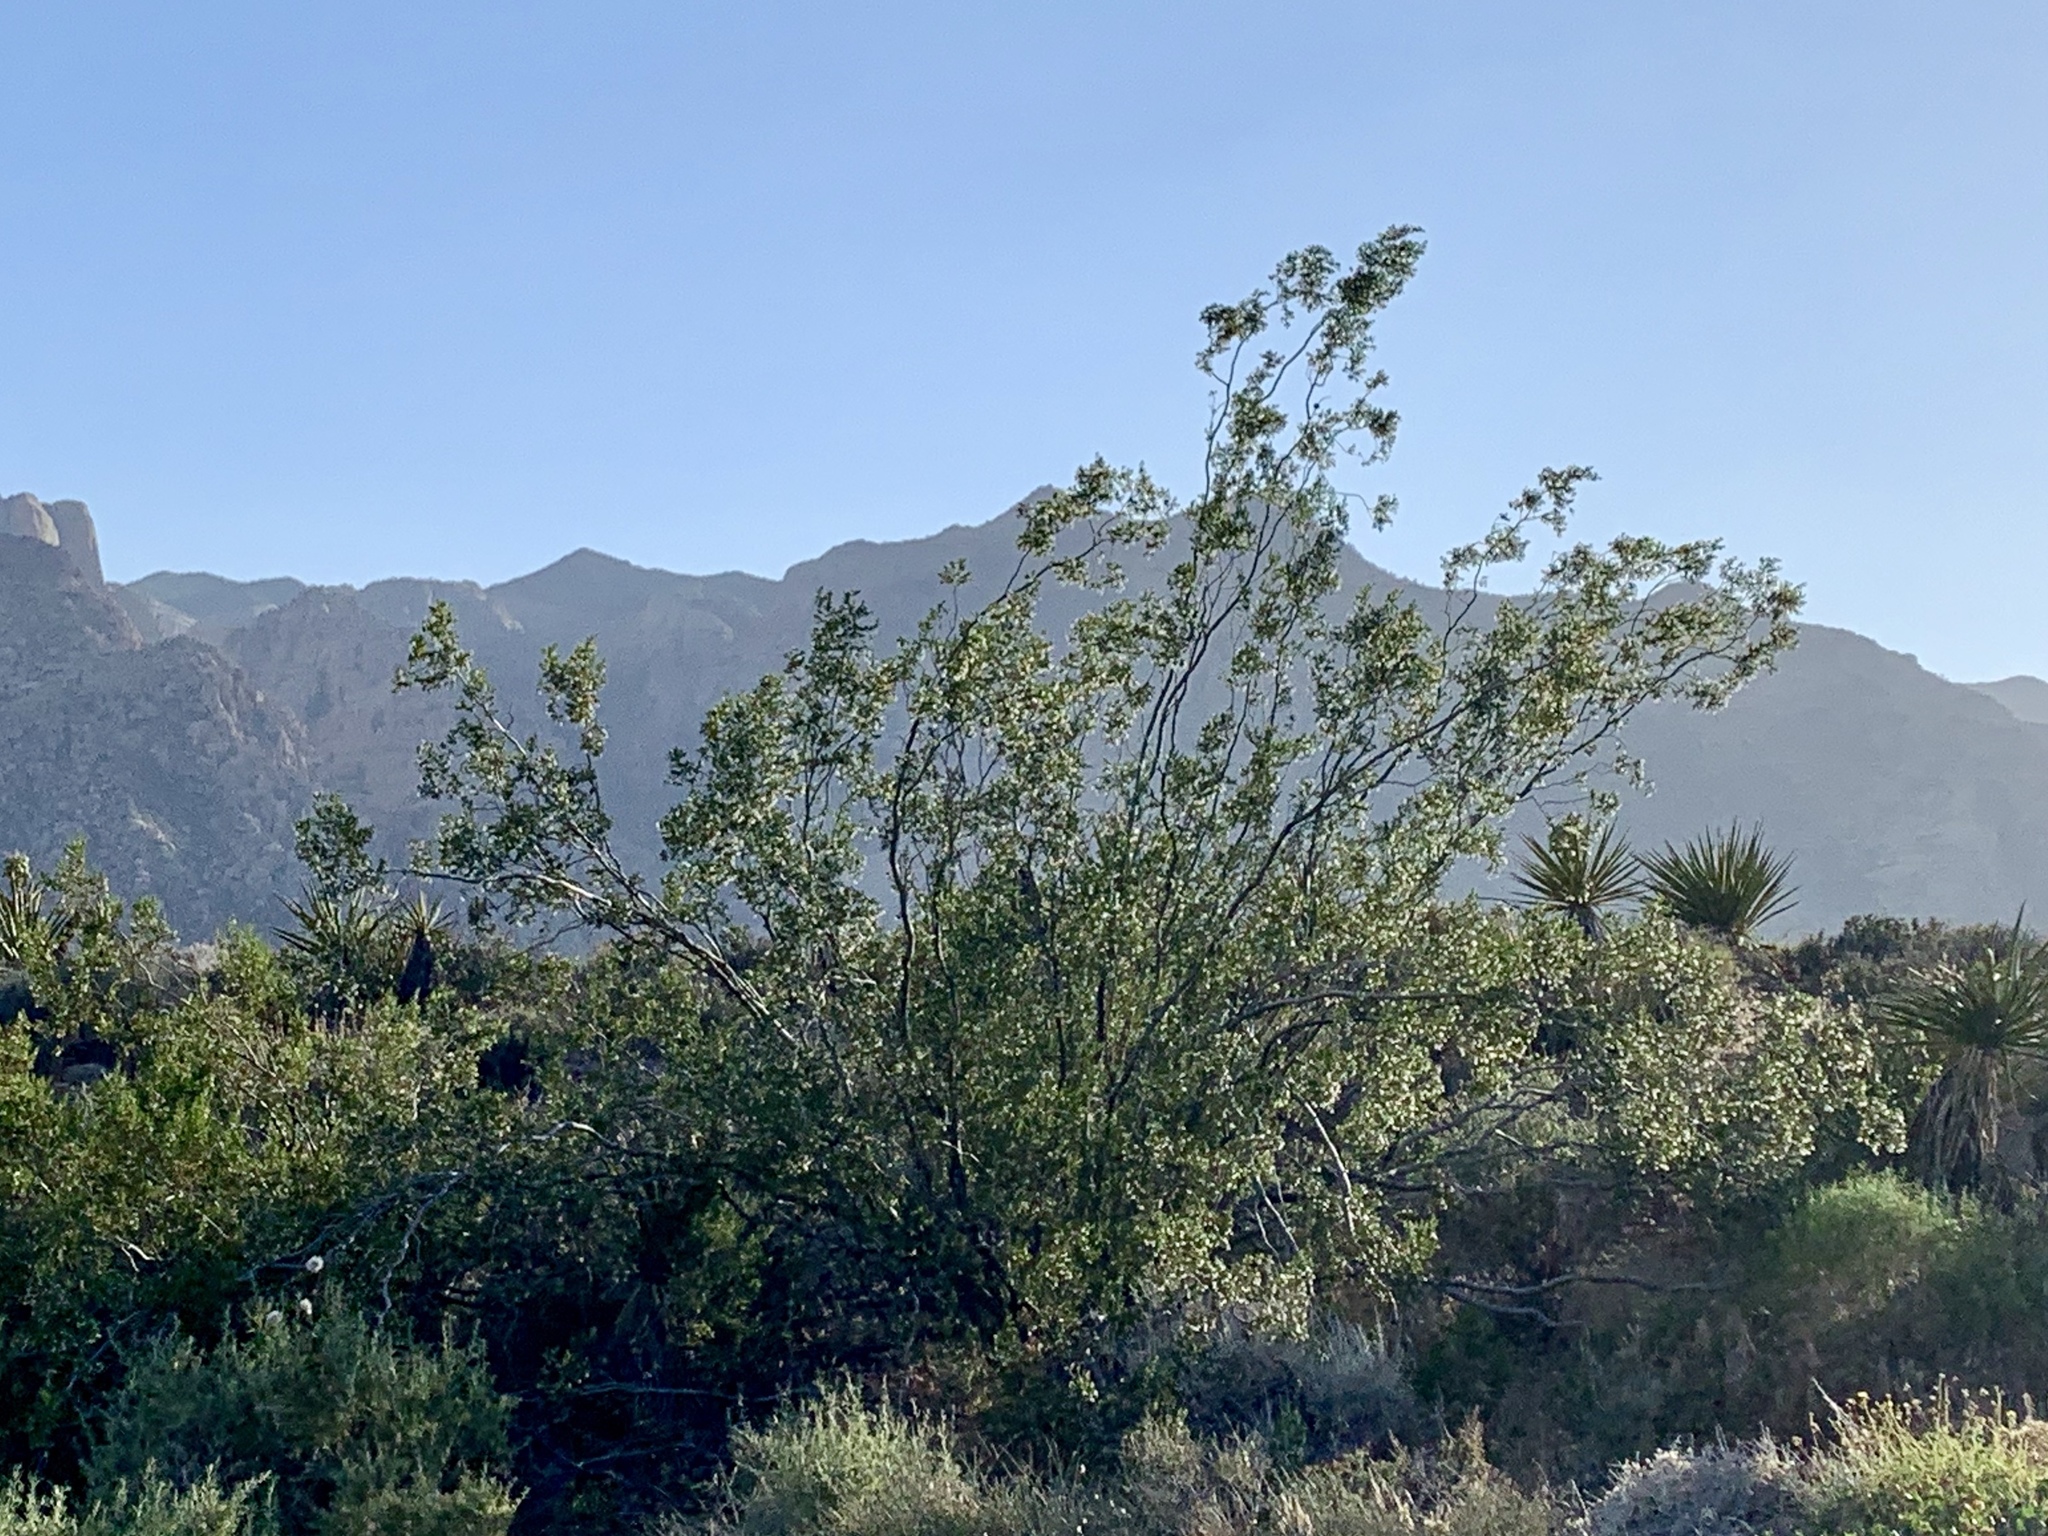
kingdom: Plantae
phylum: Tracheophyta
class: Magnoliopsida
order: Zygophyllales
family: Zygophyllaceae
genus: Larrea
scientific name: Larrea tridentata
